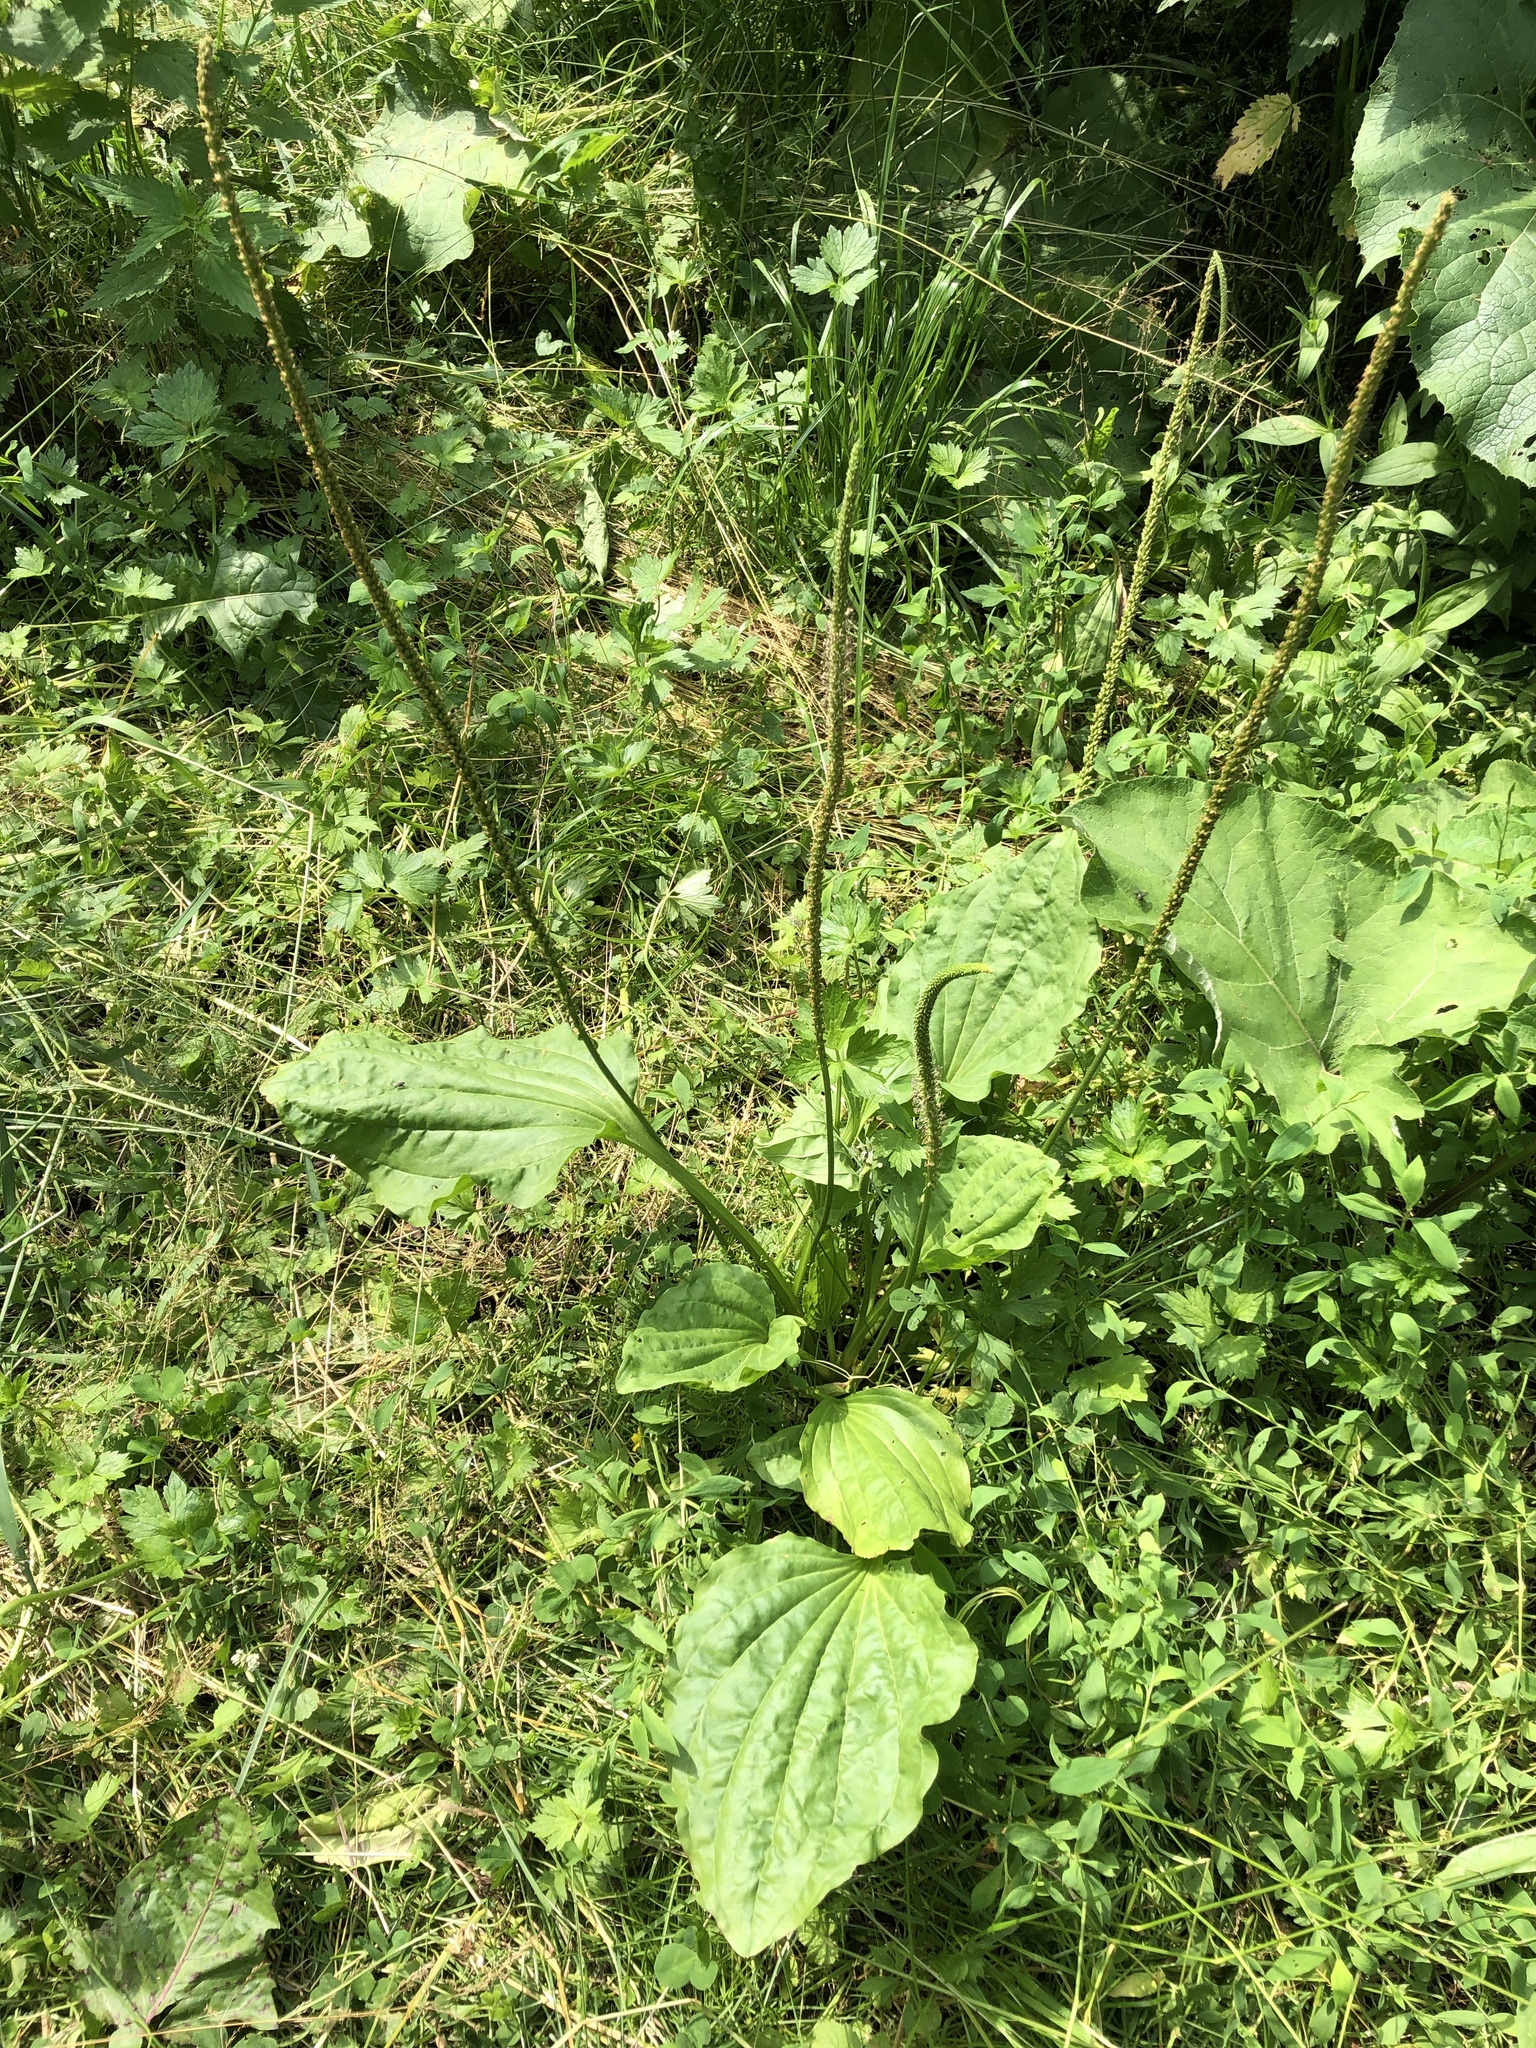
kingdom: Plantae
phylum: Tracheophyta
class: Magnoliopsida
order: Lamiales
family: Plantaginaceae
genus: Plantago
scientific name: Plantago major
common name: Common plantain
